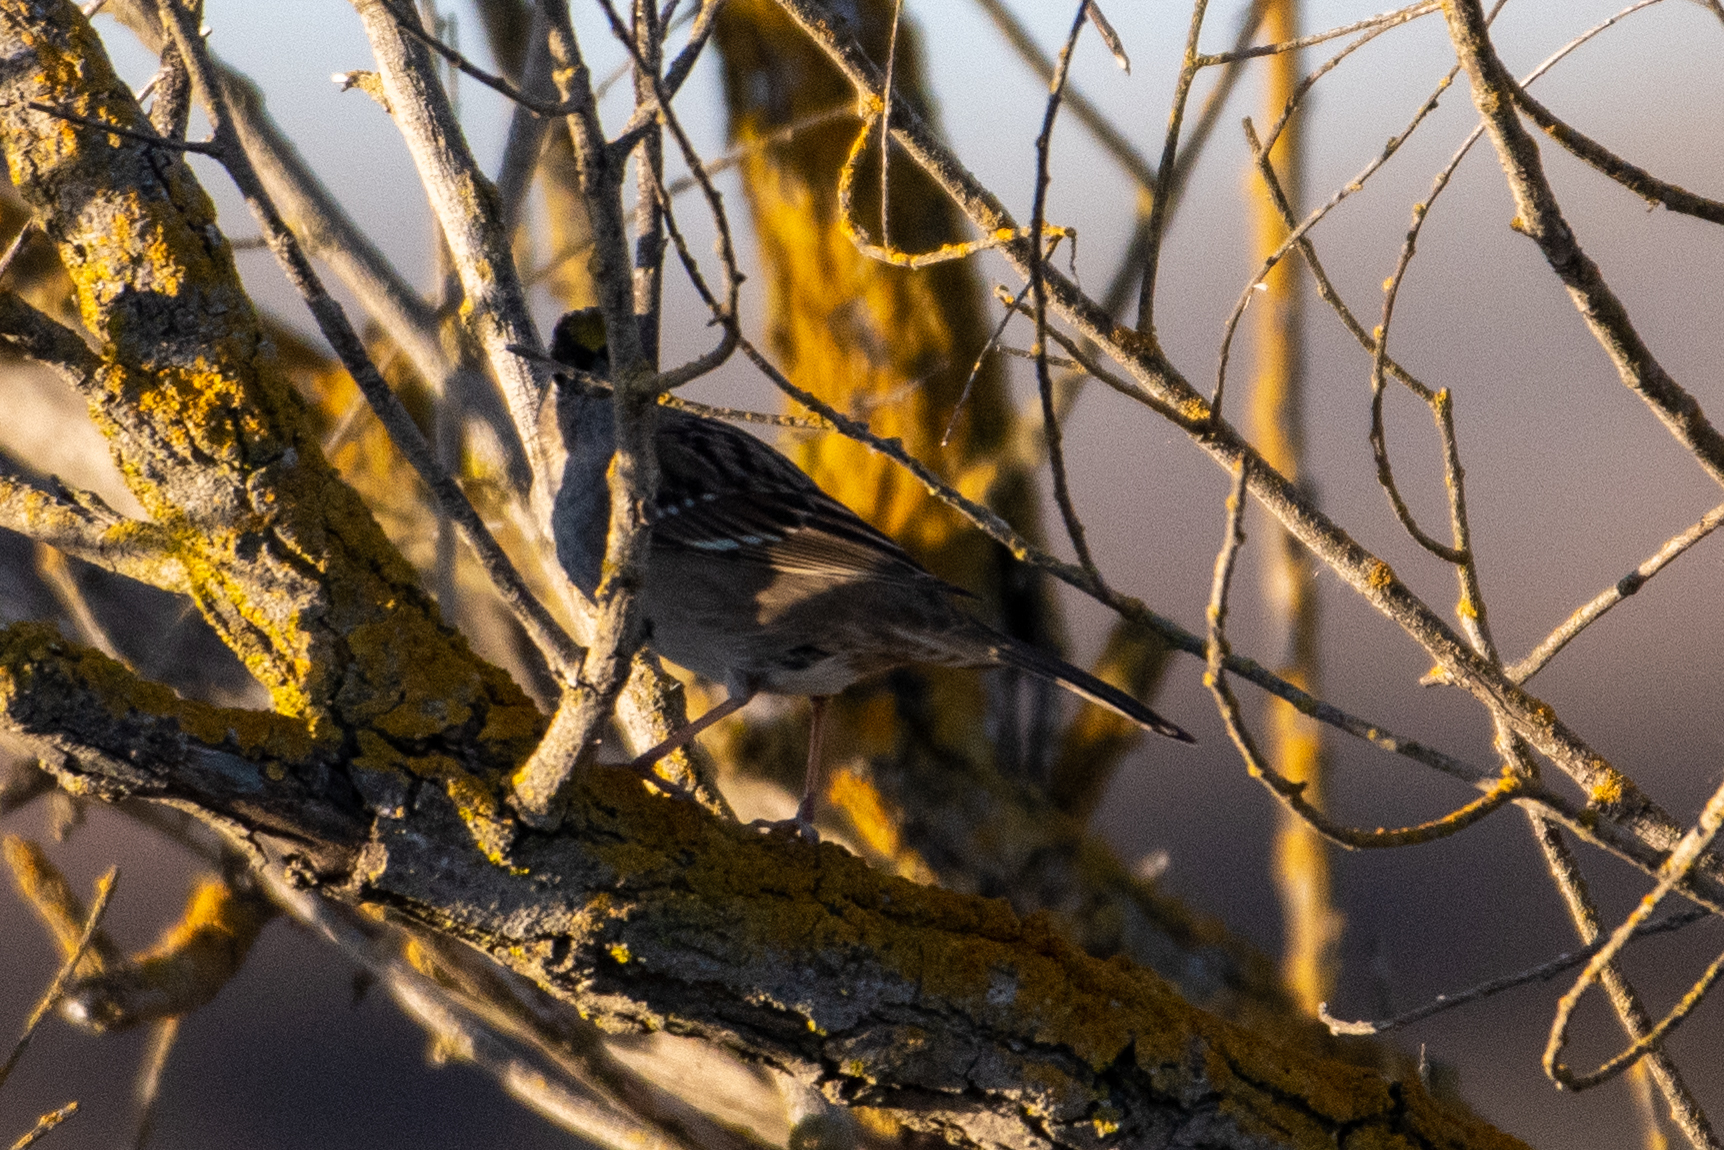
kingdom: Animalia
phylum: Chordata
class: Aves
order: Passeriformes
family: Passerellidae
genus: Zonotrichia
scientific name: Zonotrichia atricapilla
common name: Golden-crowned sparrow
